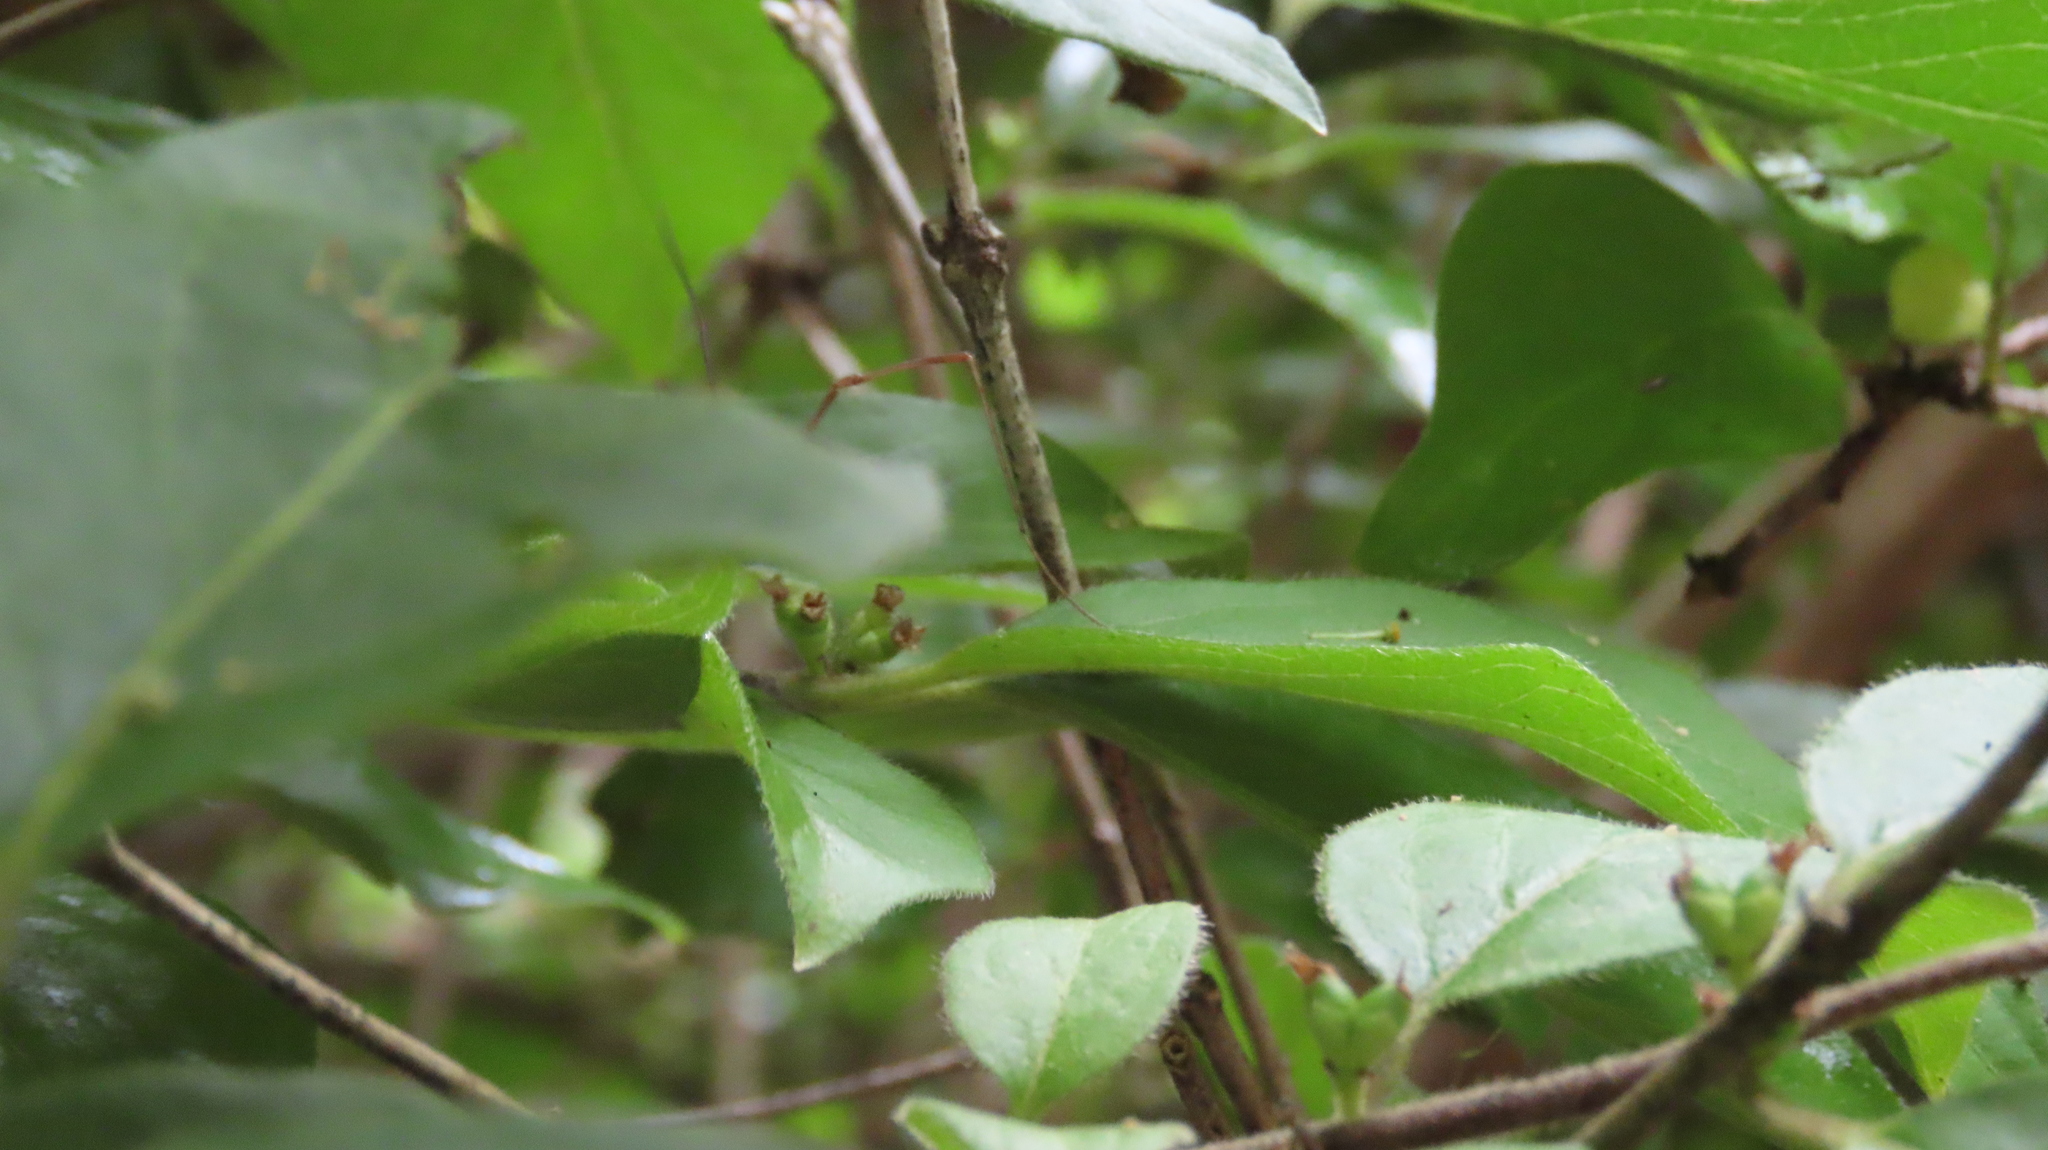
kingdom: Plantae
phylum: Tracheophyta
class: Magnoliopsida
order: Dipsacales
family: Caprifoliaceae
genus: Lonicera
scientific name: Lonicera maackii
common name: Amur honeysuckle
